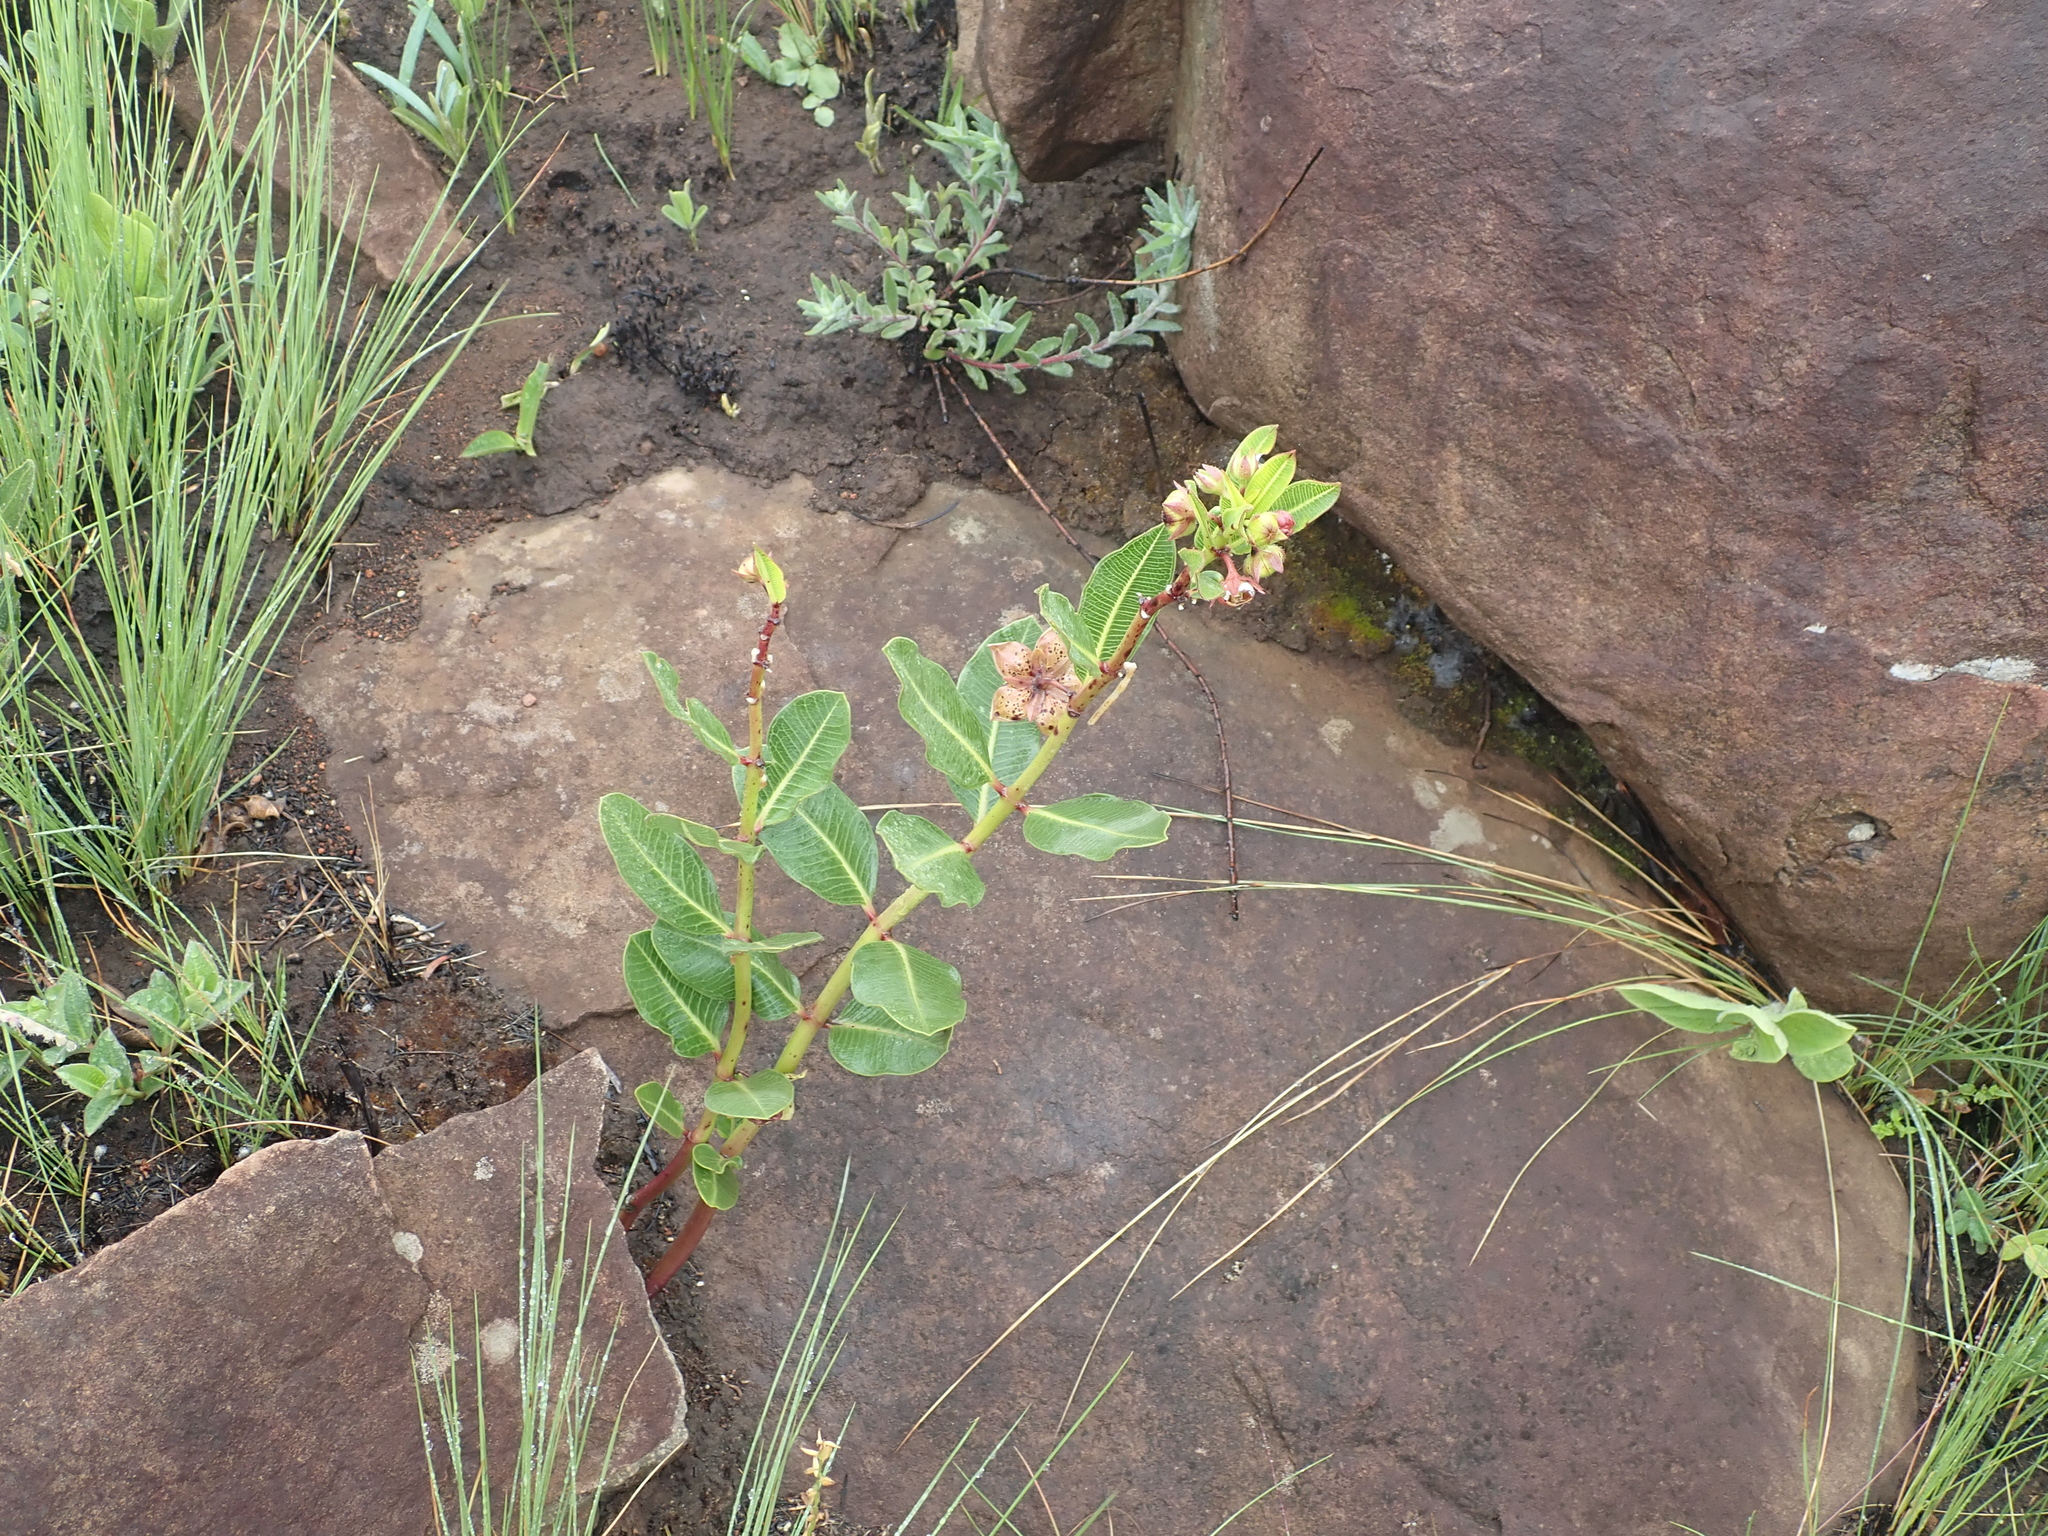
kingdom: Plantae
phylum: Tracheophyta
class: Magnoliopsida
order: Gentianales
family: Apocynaceae
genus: Pachycarpus
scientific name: Pachycarpus natalensis
